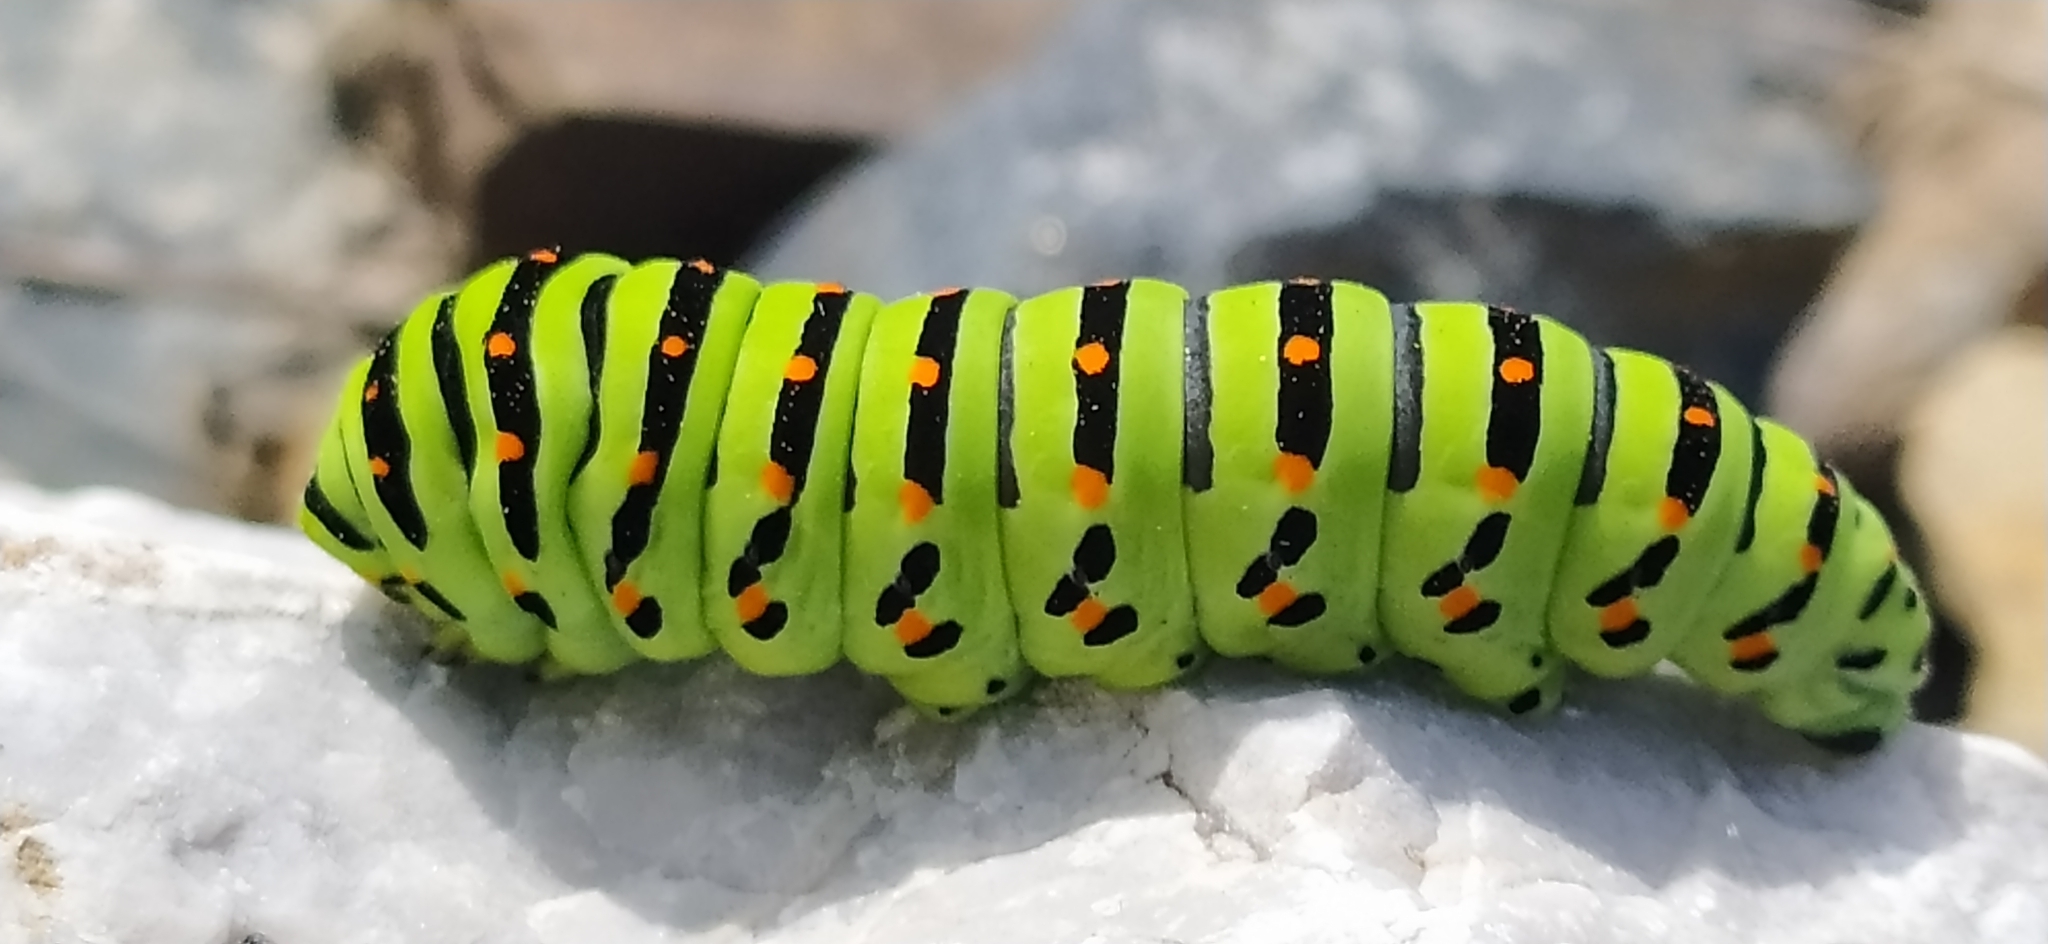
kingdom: Animalia
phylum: Arthropoda
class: Insecta
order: Lepidoptera
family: Papilionidae
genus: Papilio
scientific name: Papilio machaon
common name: Swallowtail
